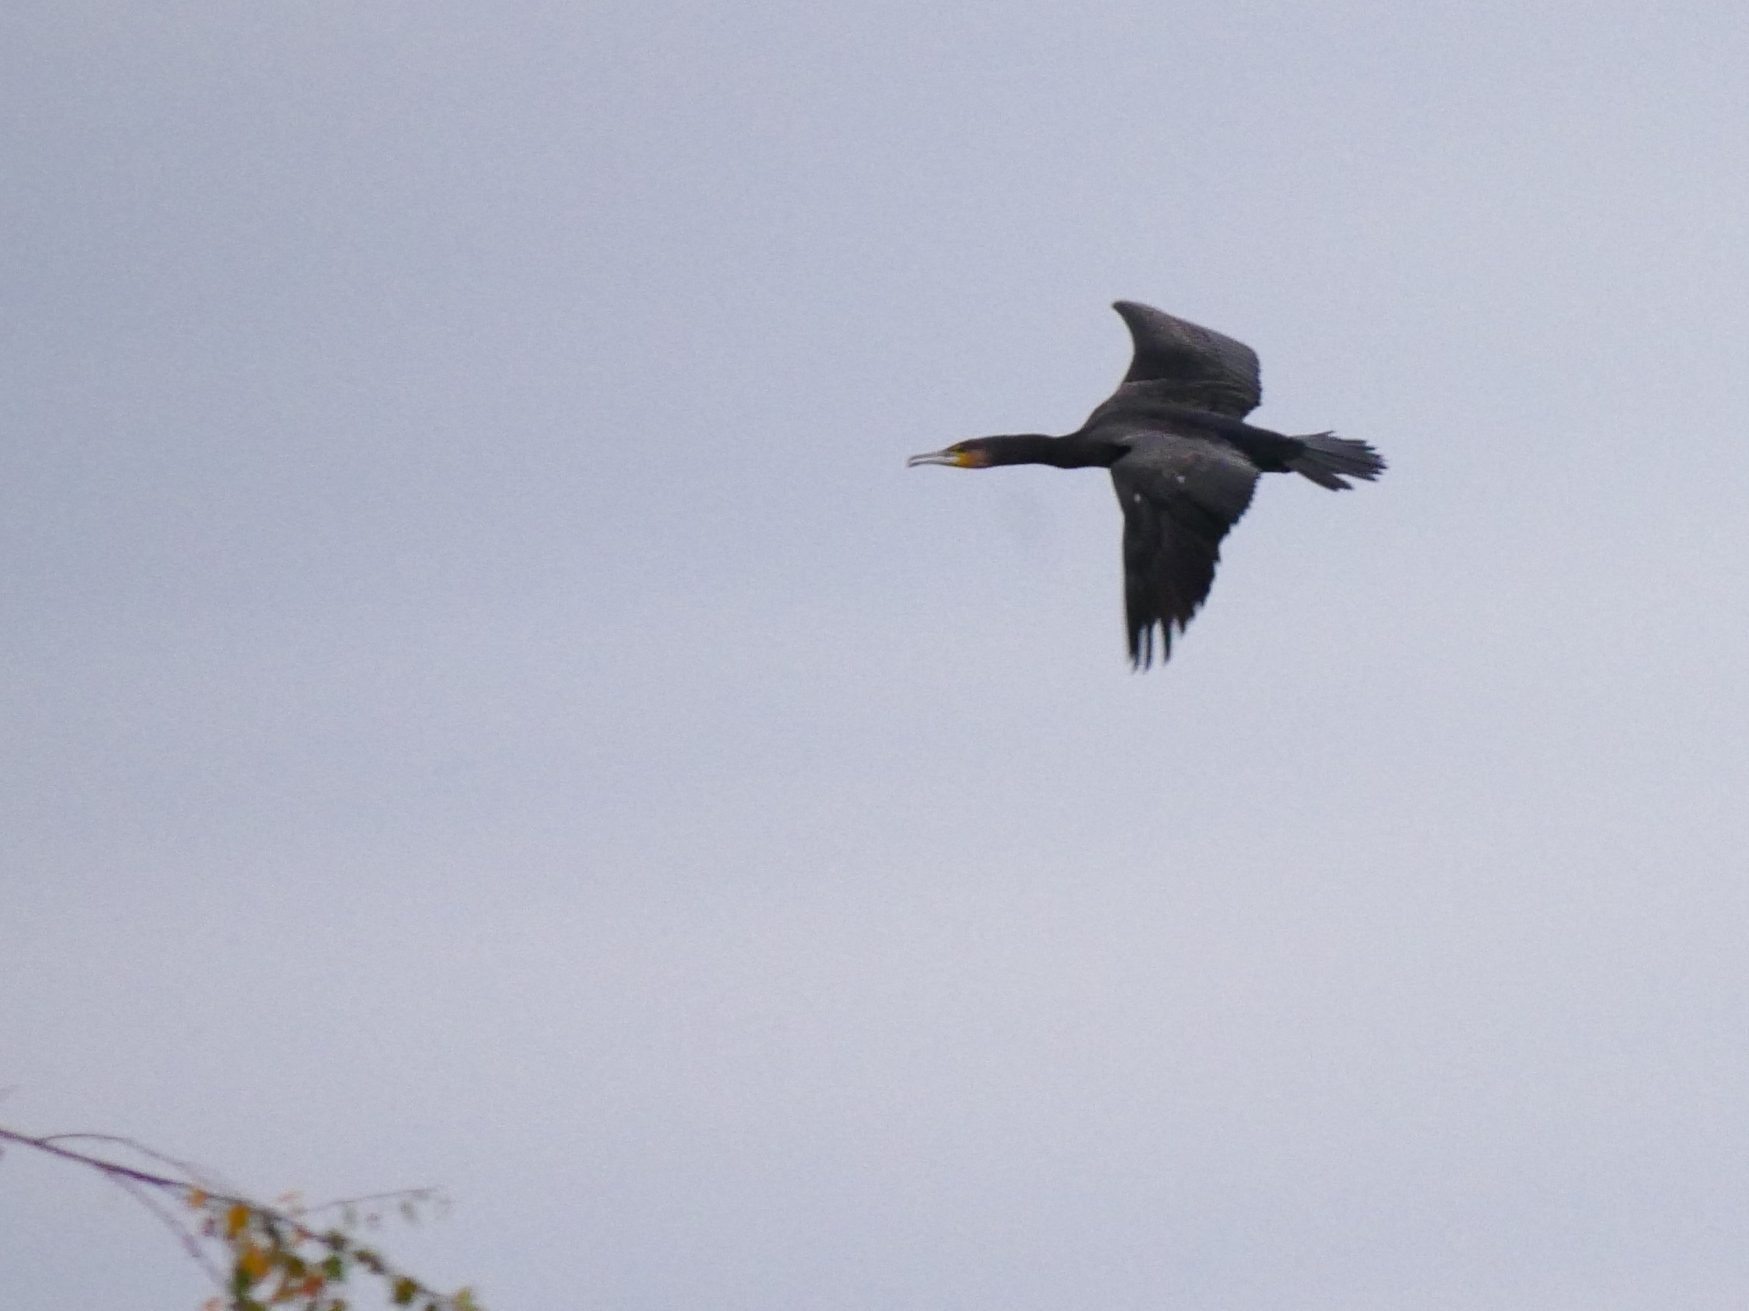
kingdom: Animalia
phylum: Chordata
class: Aves
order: Suliformes
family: Phalacrocoracidae
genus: Phalacrocorax
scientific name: Phalacrocorax carbo
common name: Great cormorant
